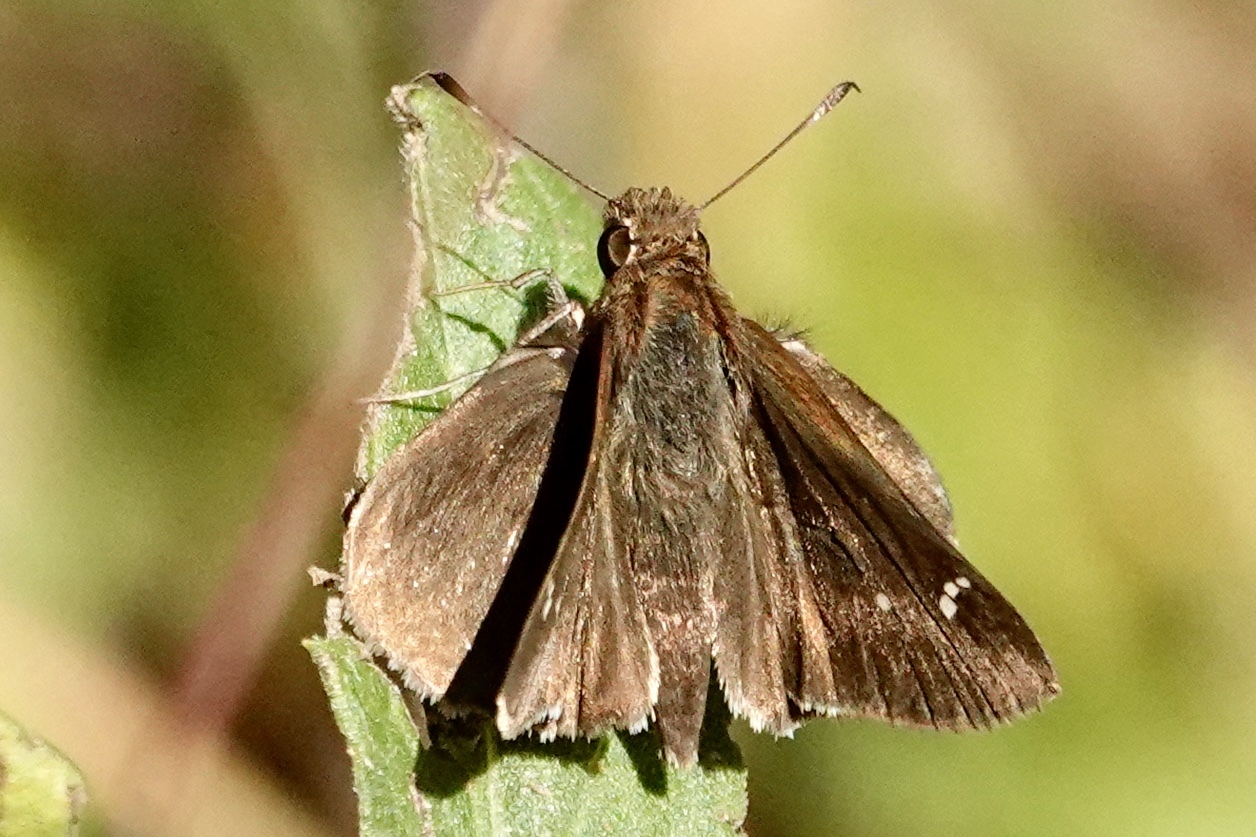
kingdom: Animalia
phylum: Arthropoda
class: Insecta
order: Lepidoptera
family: Hesperiidae
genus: Lerema
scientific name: Lerema accius
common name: Clouded skipper
